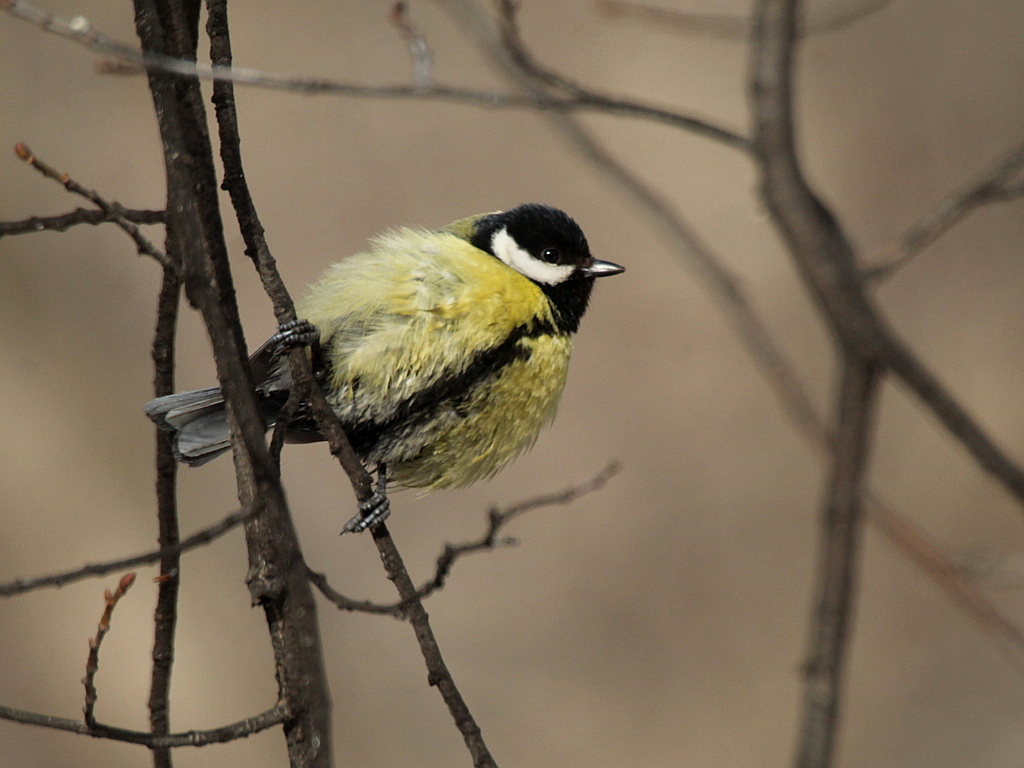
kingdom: Animalia
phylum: Chordata
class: Aves
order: Passeriformes
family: Paridae
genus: Parus
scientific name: Parus major
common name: Great tit
